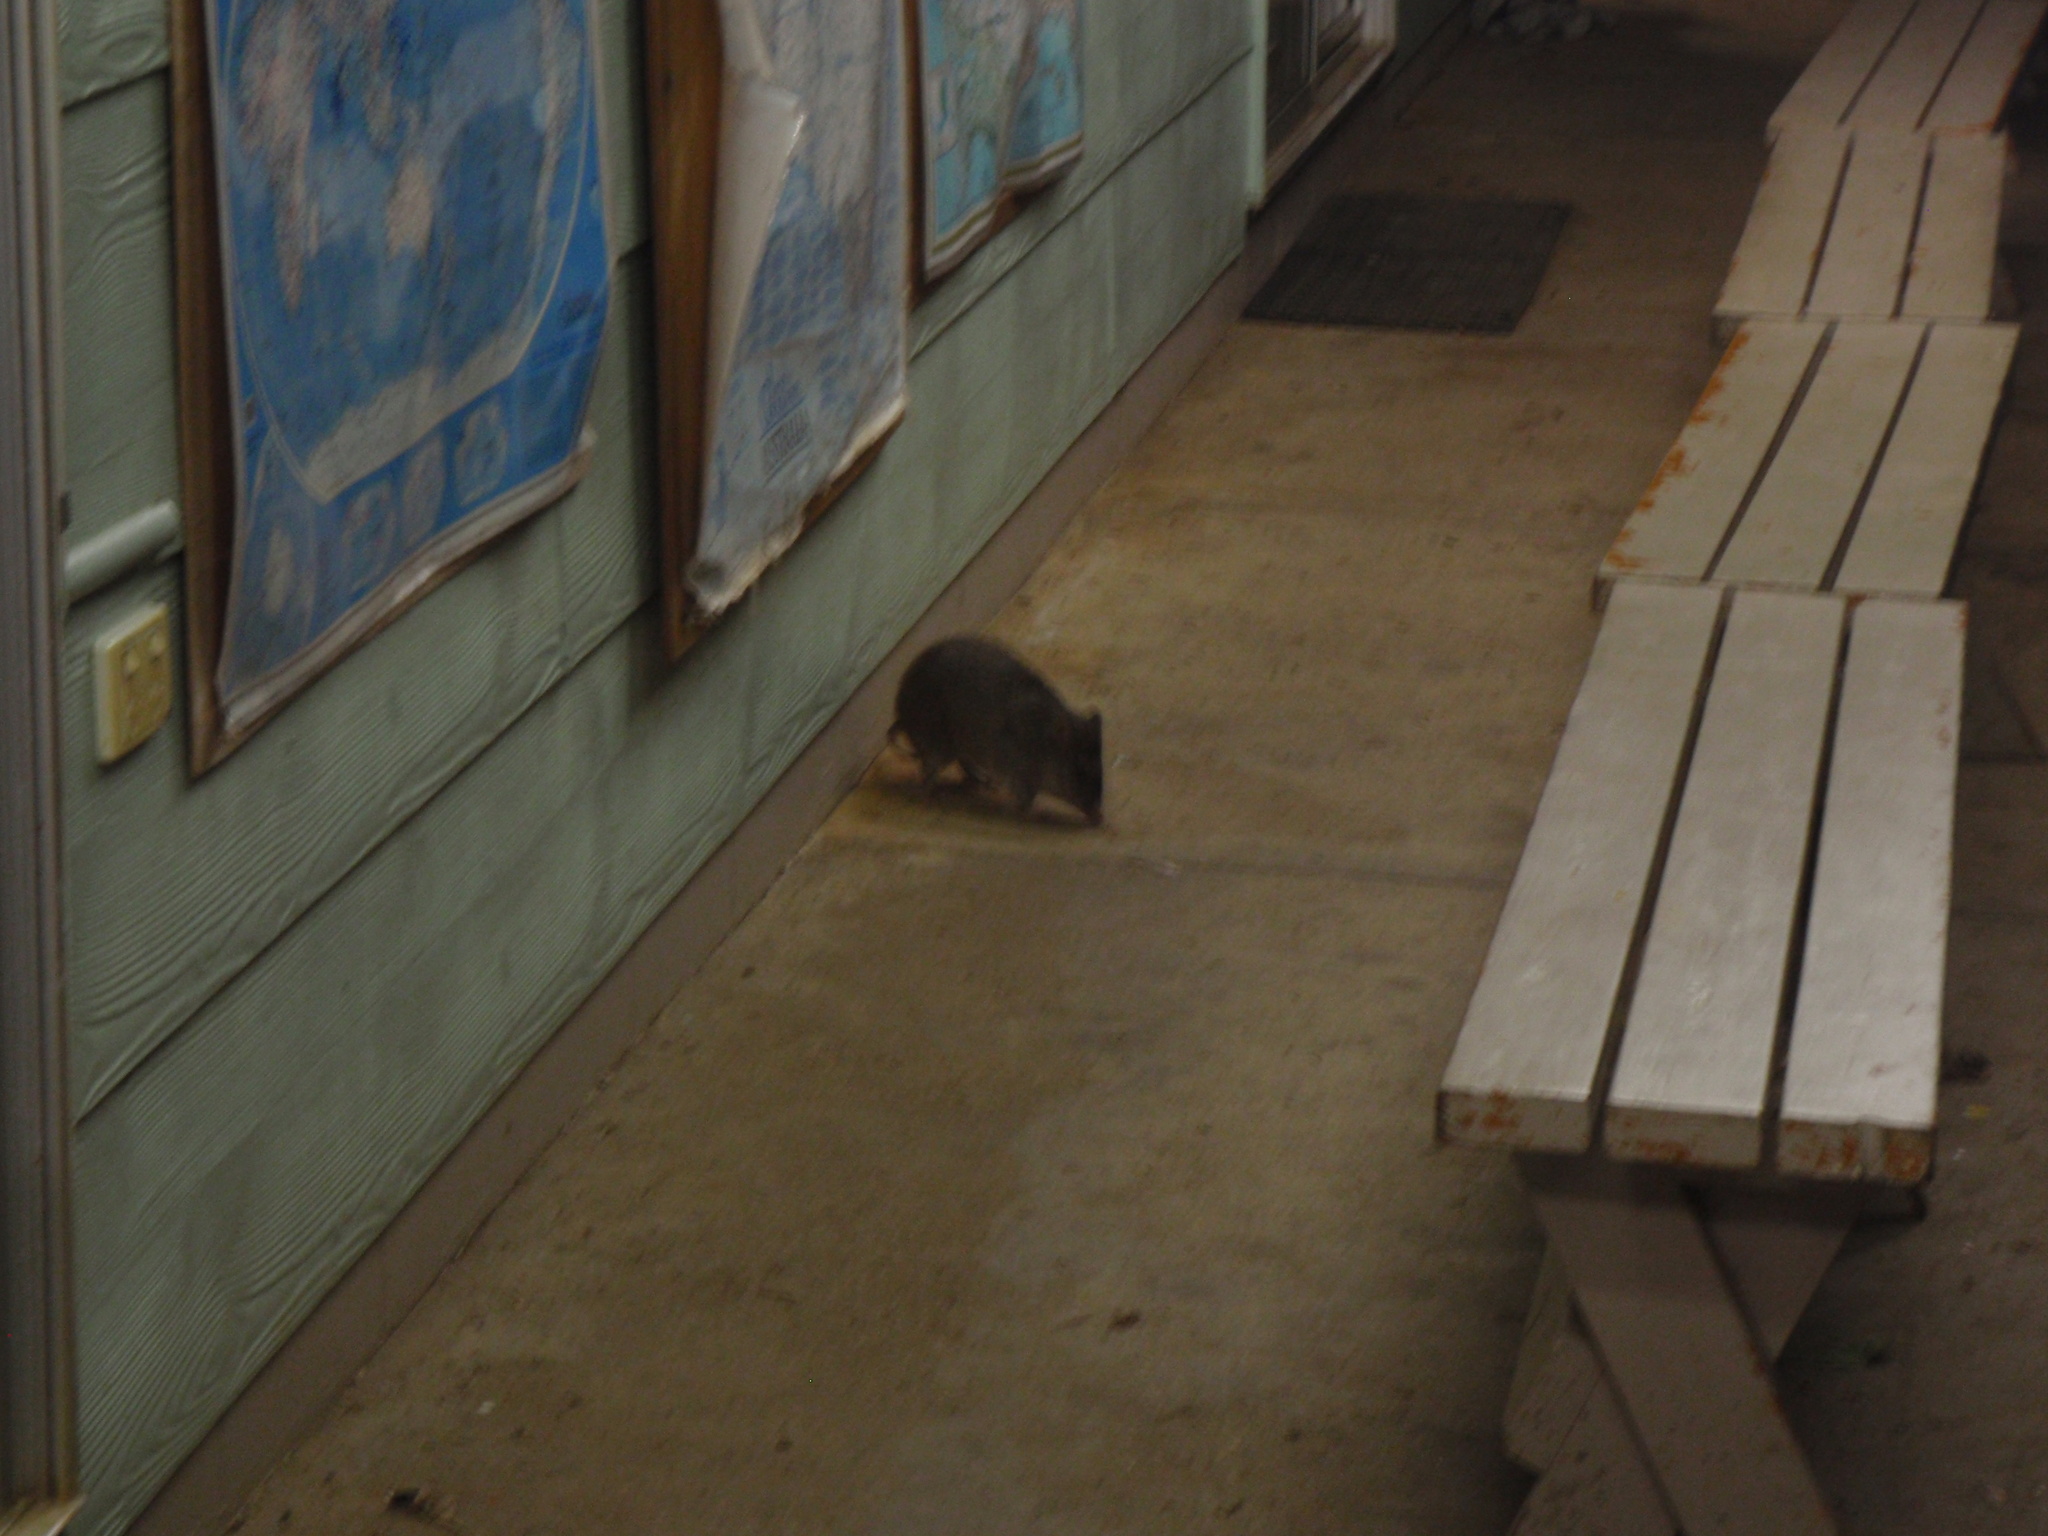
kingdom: Animalia
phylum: Chordata
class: Mammalia
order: Peramelemorphia
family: Peramelidae
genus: Isoodon
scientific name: Isoodon macrourus
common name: Northern brown bandicoot
